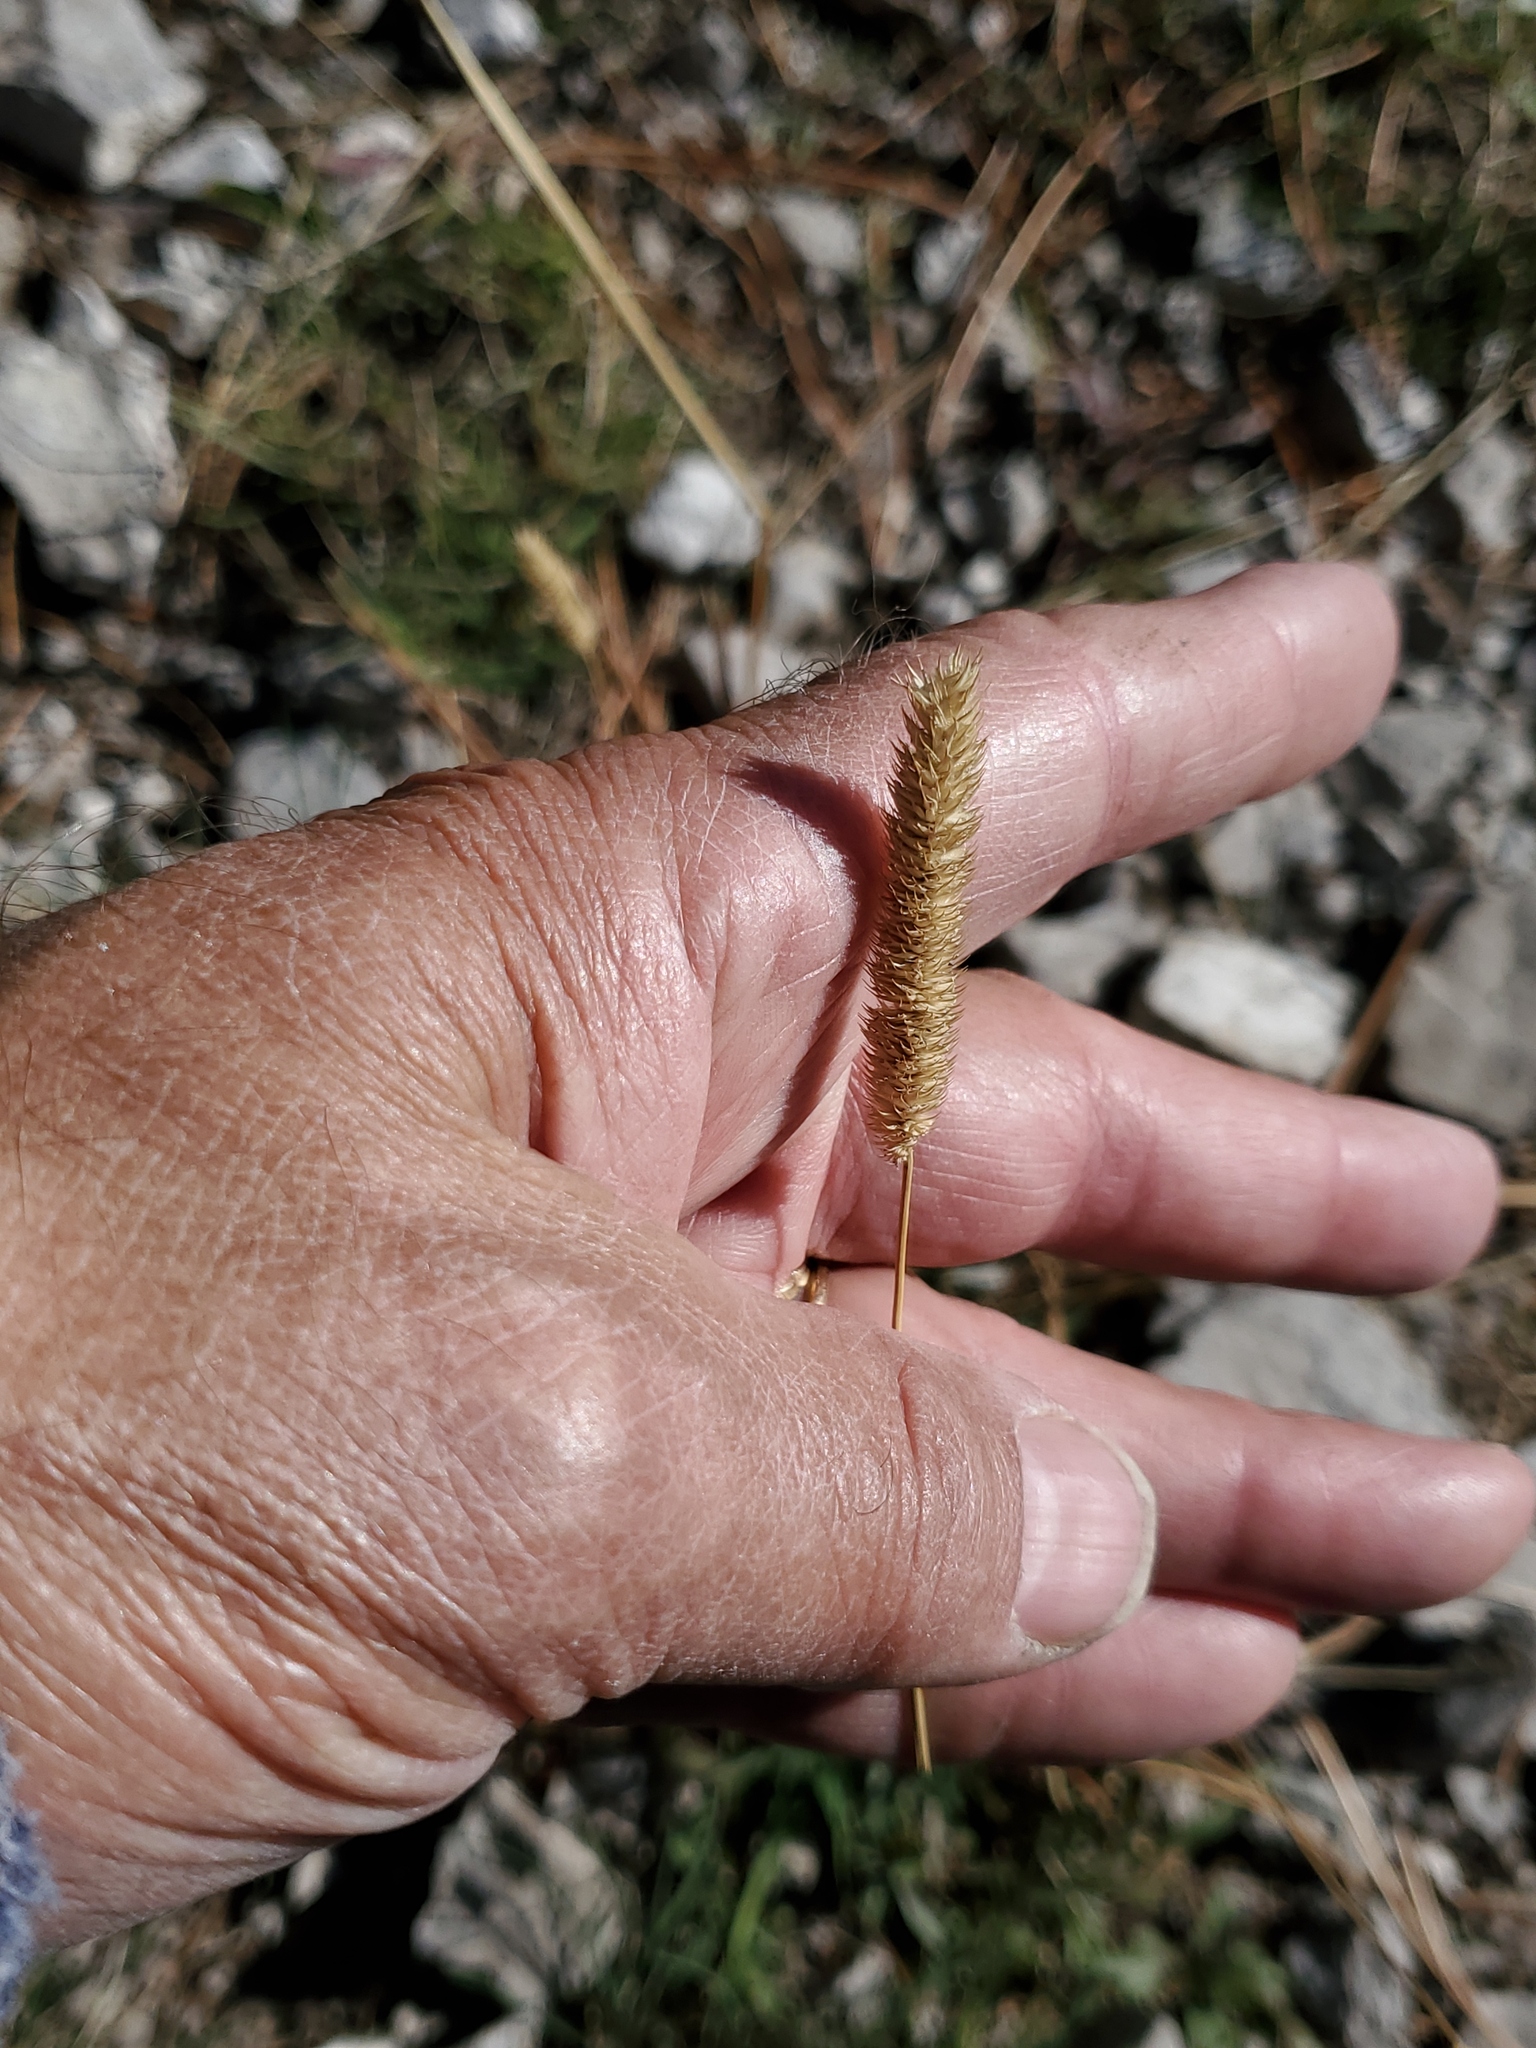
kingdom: Plantae
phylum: Tracheophyta
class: Liliopsida
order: Poales
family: Poaceae
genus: Phleum
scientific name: Phleum pratense
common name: Timothy grass
